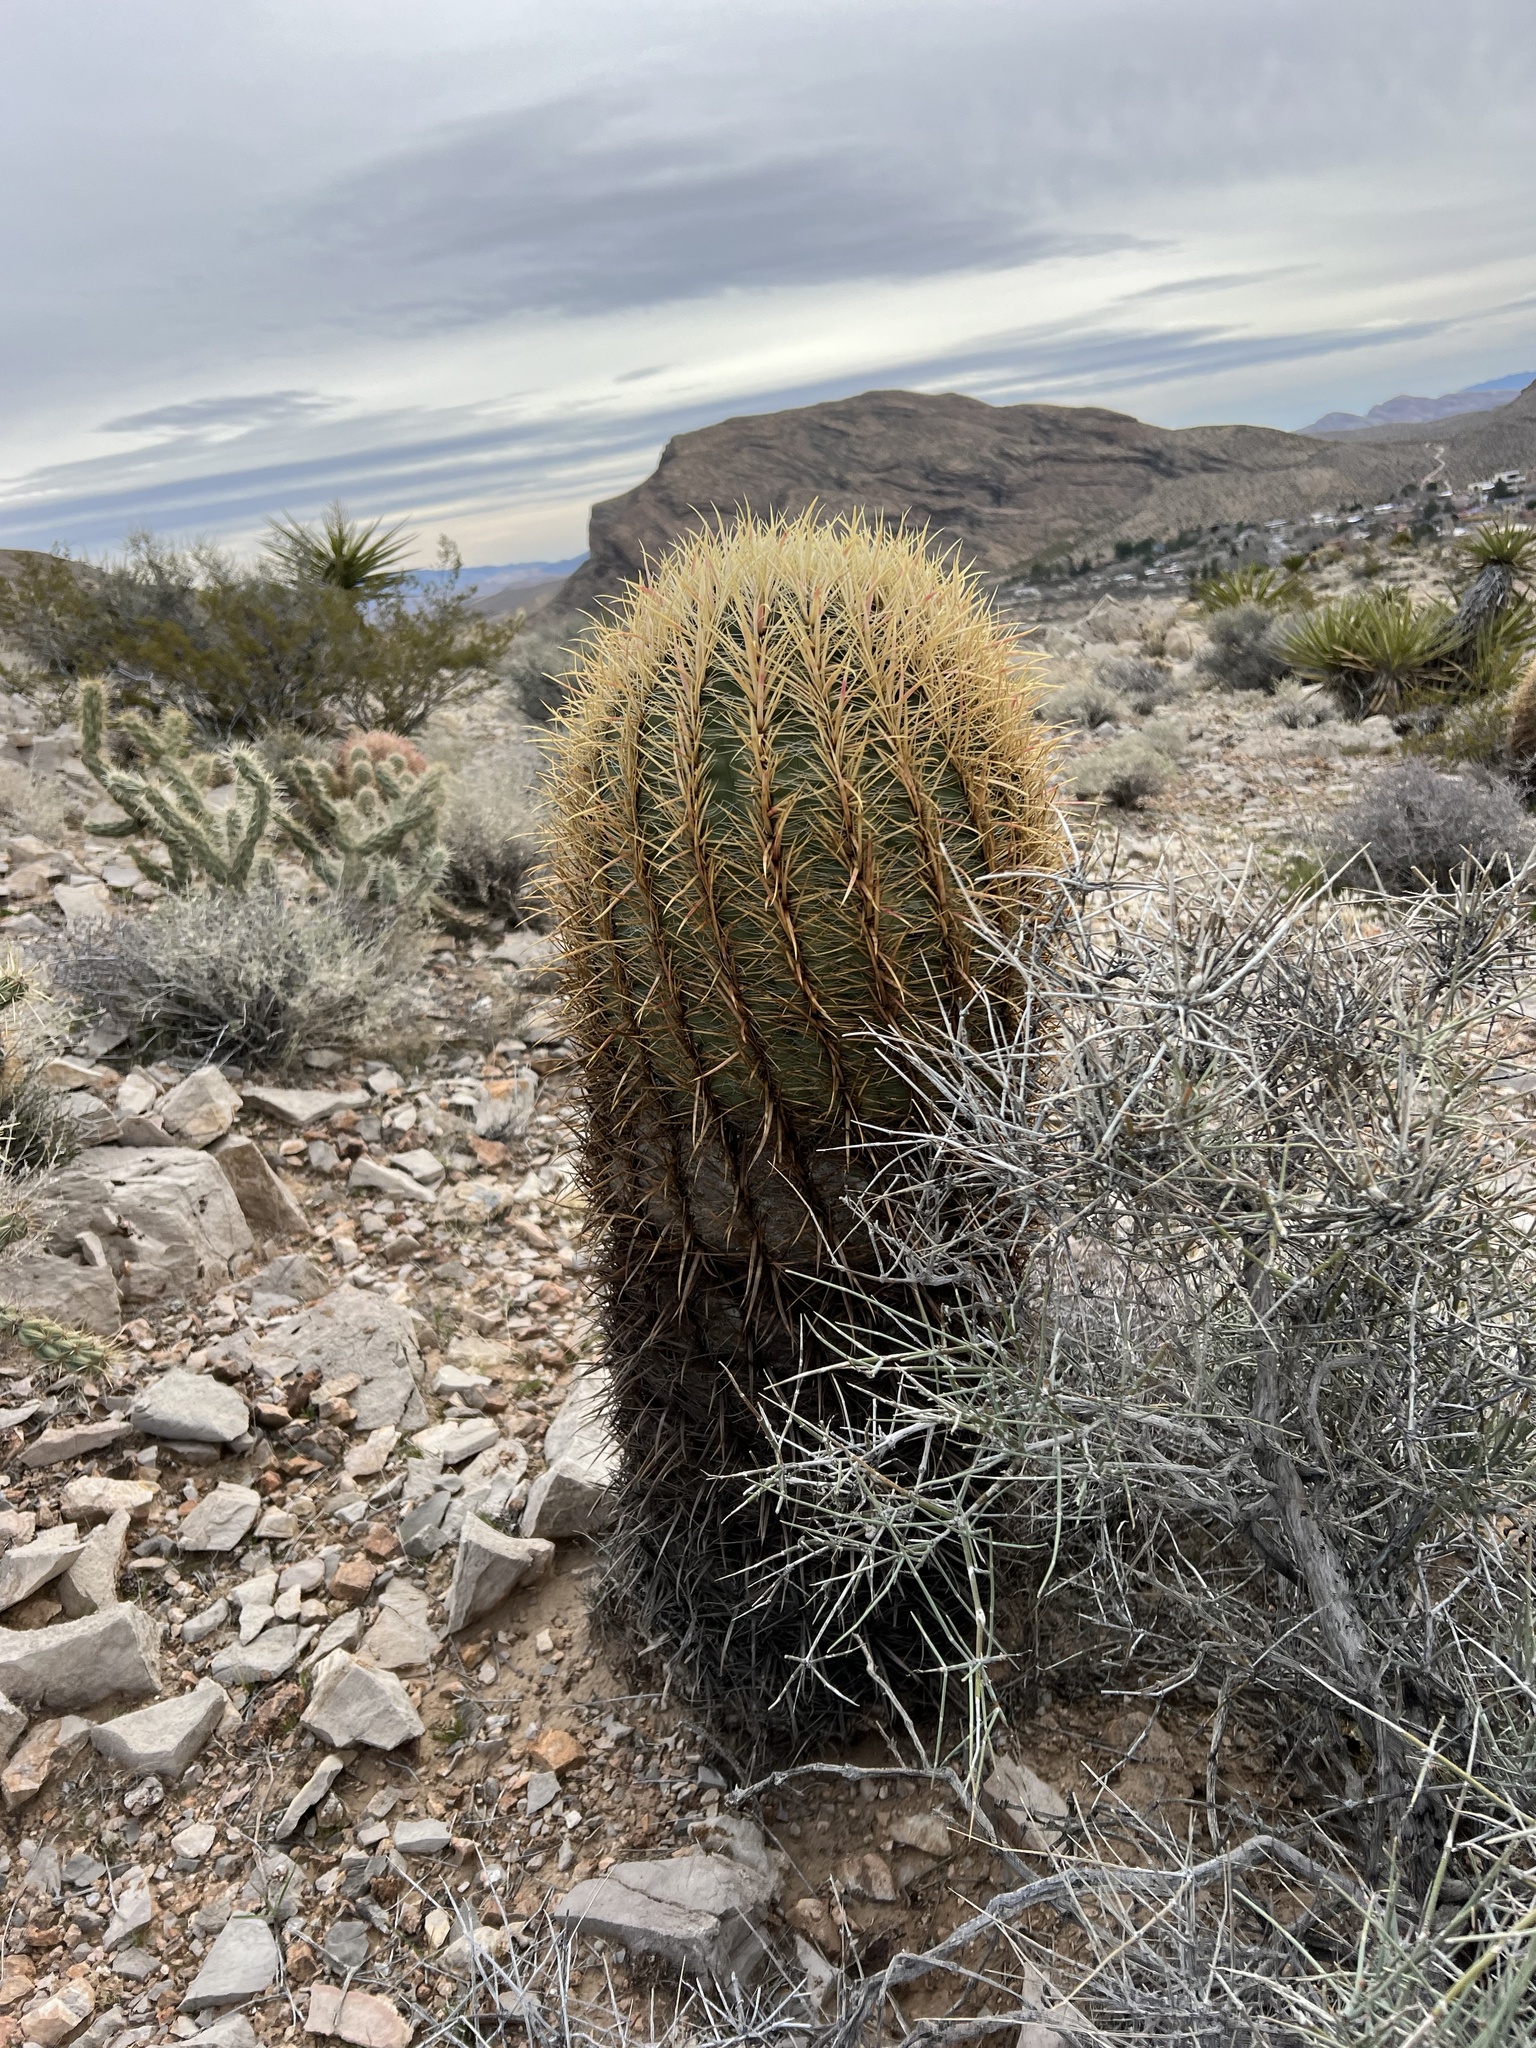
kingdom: Plantae
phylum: Tracheophyta
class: Magnoliopsida
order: Caryophyllales
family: Cactaceae
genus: Ferocactus
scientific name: Ferocactus cylindraceus
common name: California barrel cactus
